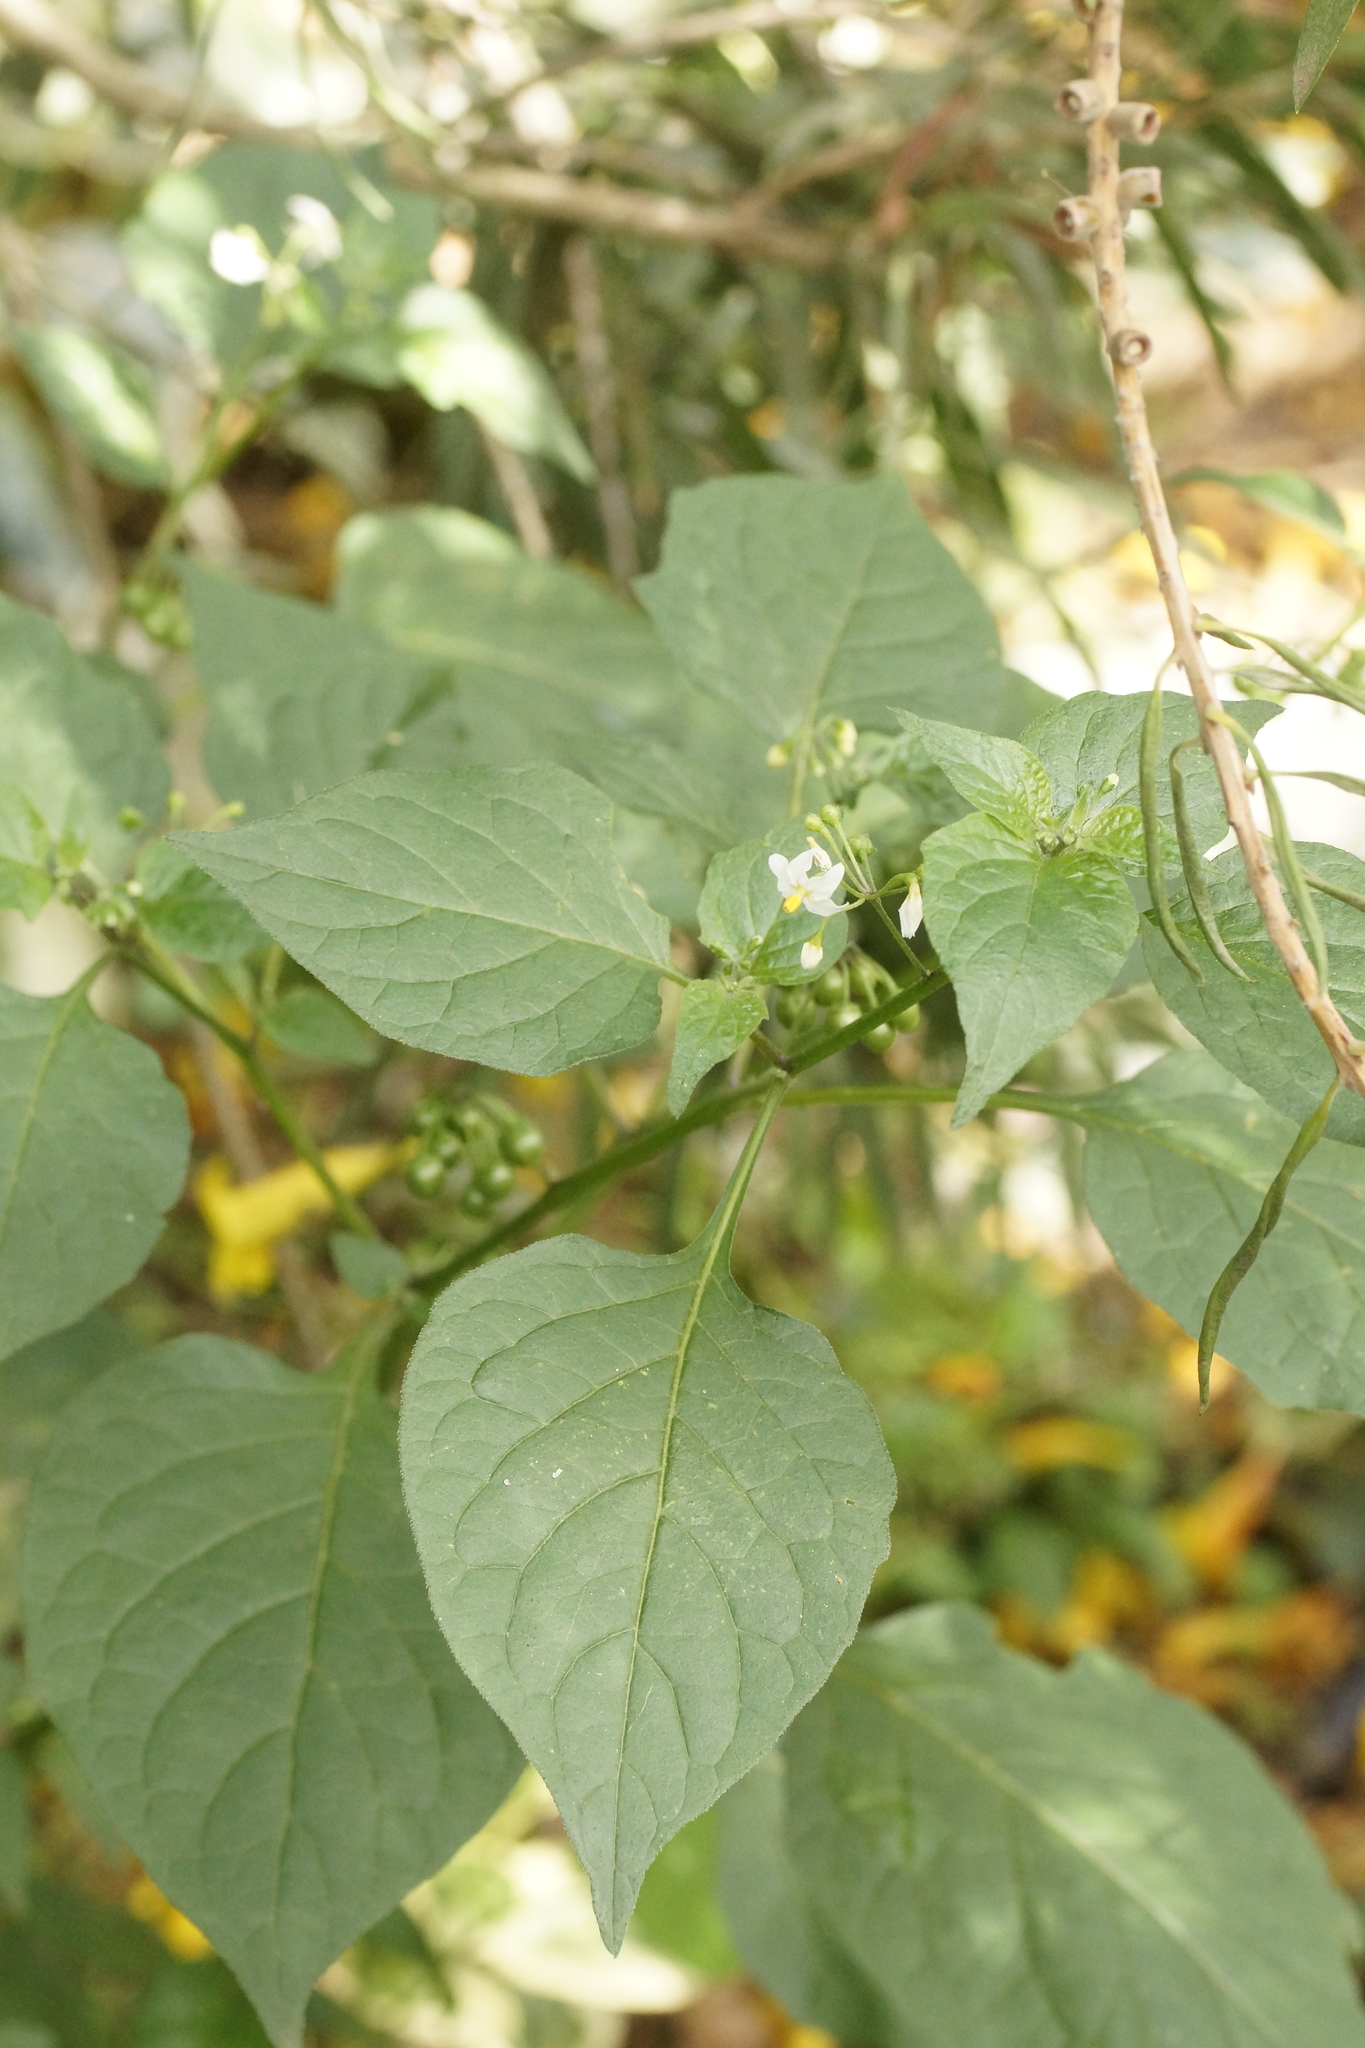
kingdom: Plantae
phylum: Tracheophyta
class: Magnoliopsida
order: Solanales
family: Solanaceae
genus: Solanum
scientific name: Solanum nigrum
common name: Black nightshade
